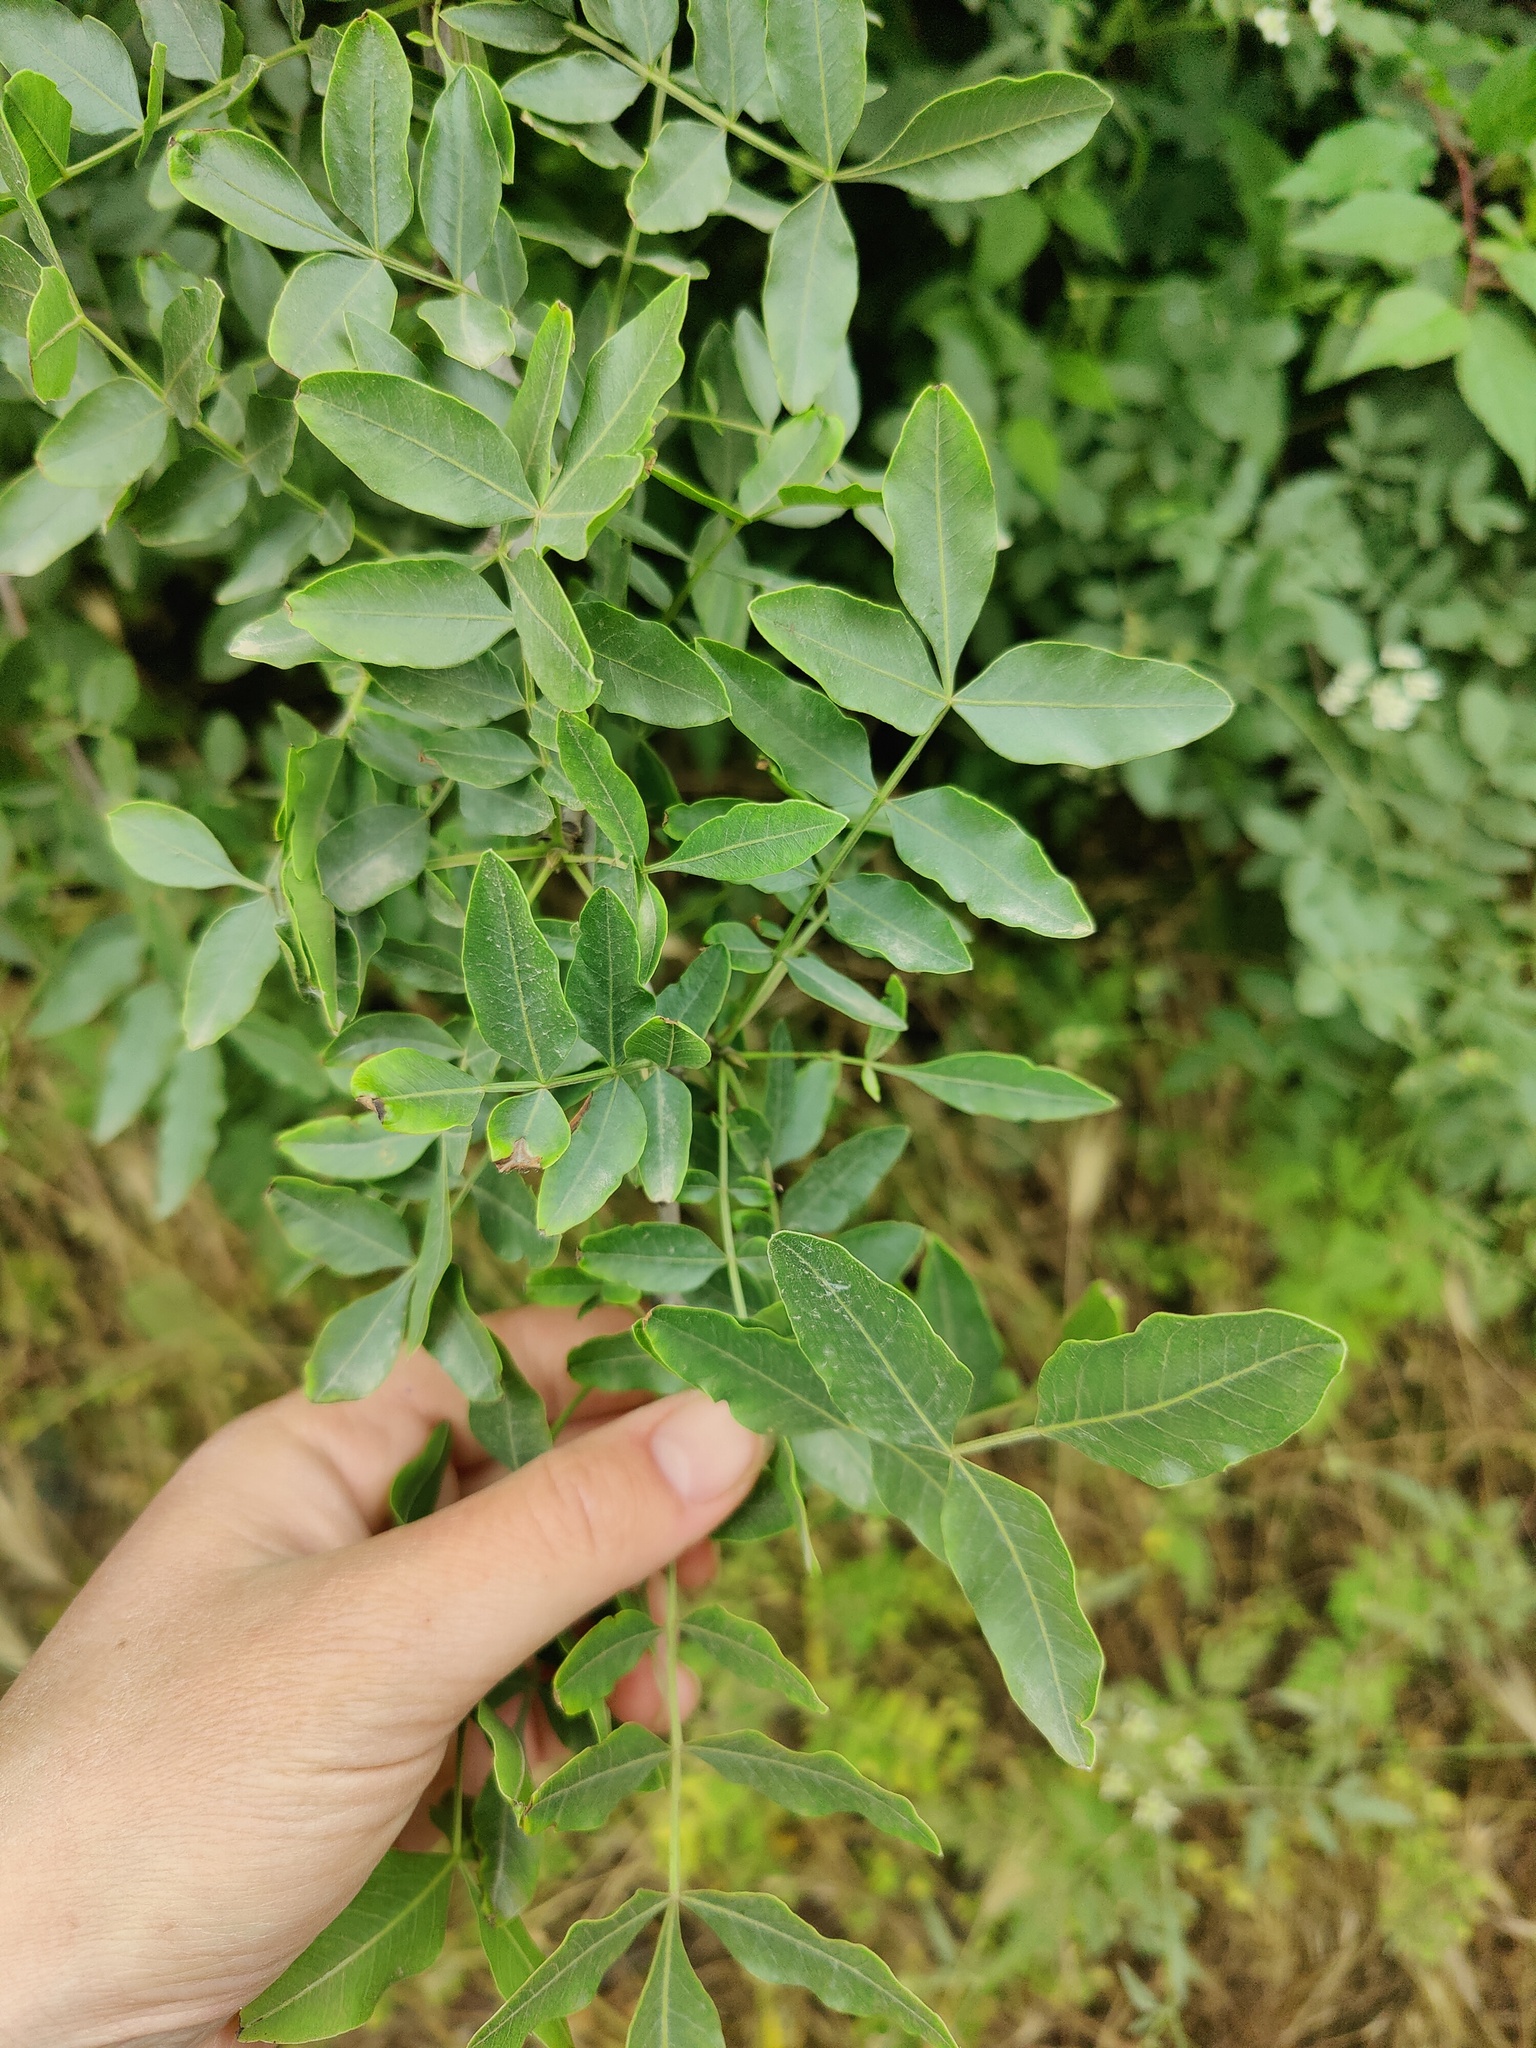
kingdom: Plantae
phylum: Tracheophyta
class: Magnoliopsida
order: Sapindales
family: Anacardiaceae
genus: Pistacia
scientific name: Pistacia atlantica
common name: Mt. atlas mastic tree
